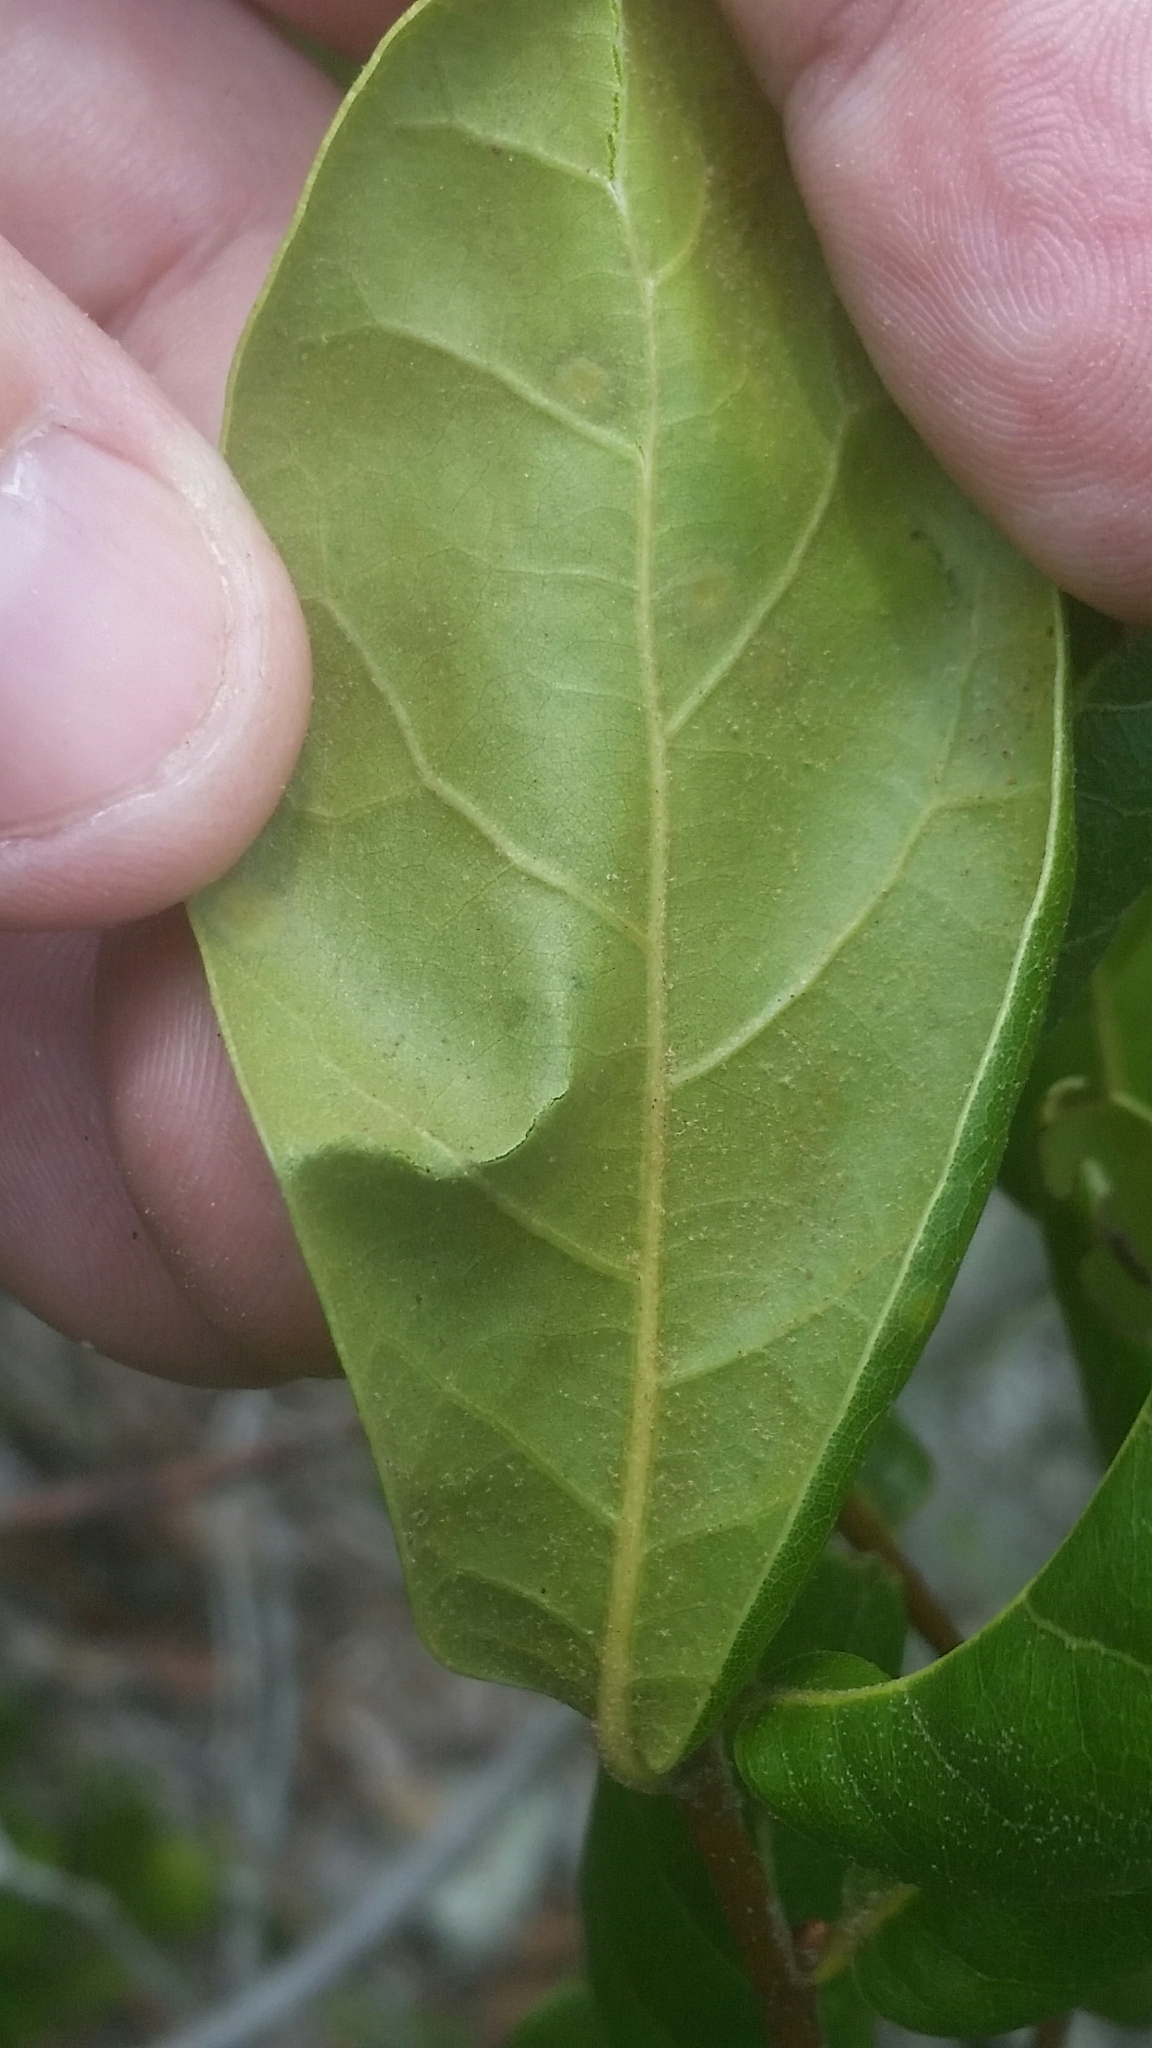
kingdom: Plantae
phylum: Tracheophyta
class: Magnoliopsida
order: Fagales
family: Fagaceae
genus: Quercus
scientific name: Quercus inopina
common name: Sandhill oak
